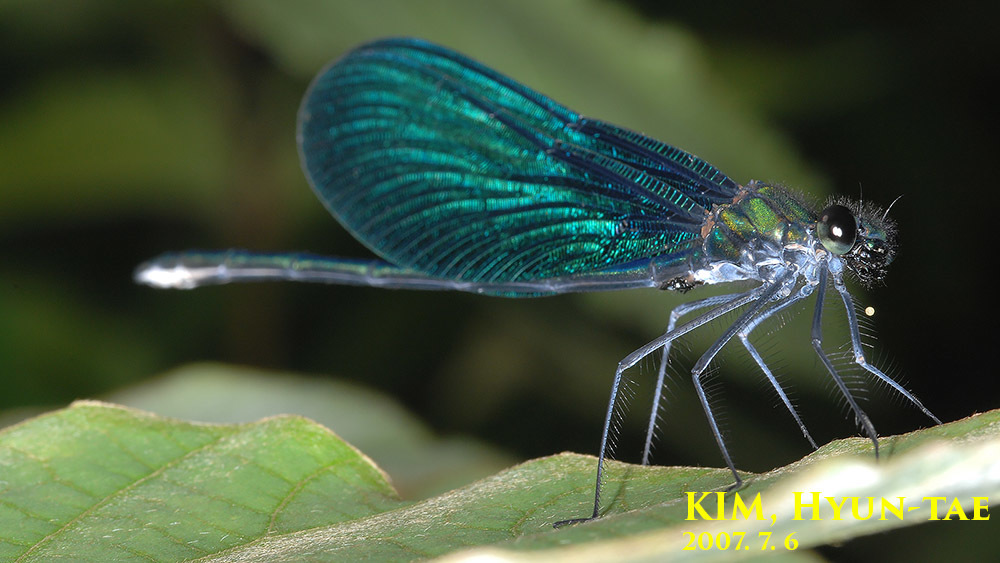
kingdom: Animalia
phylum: Arthropoda
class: Insecta
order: Odonata
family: Calopterygidae
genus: Calopteryx
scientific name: Calopteryx japonica
